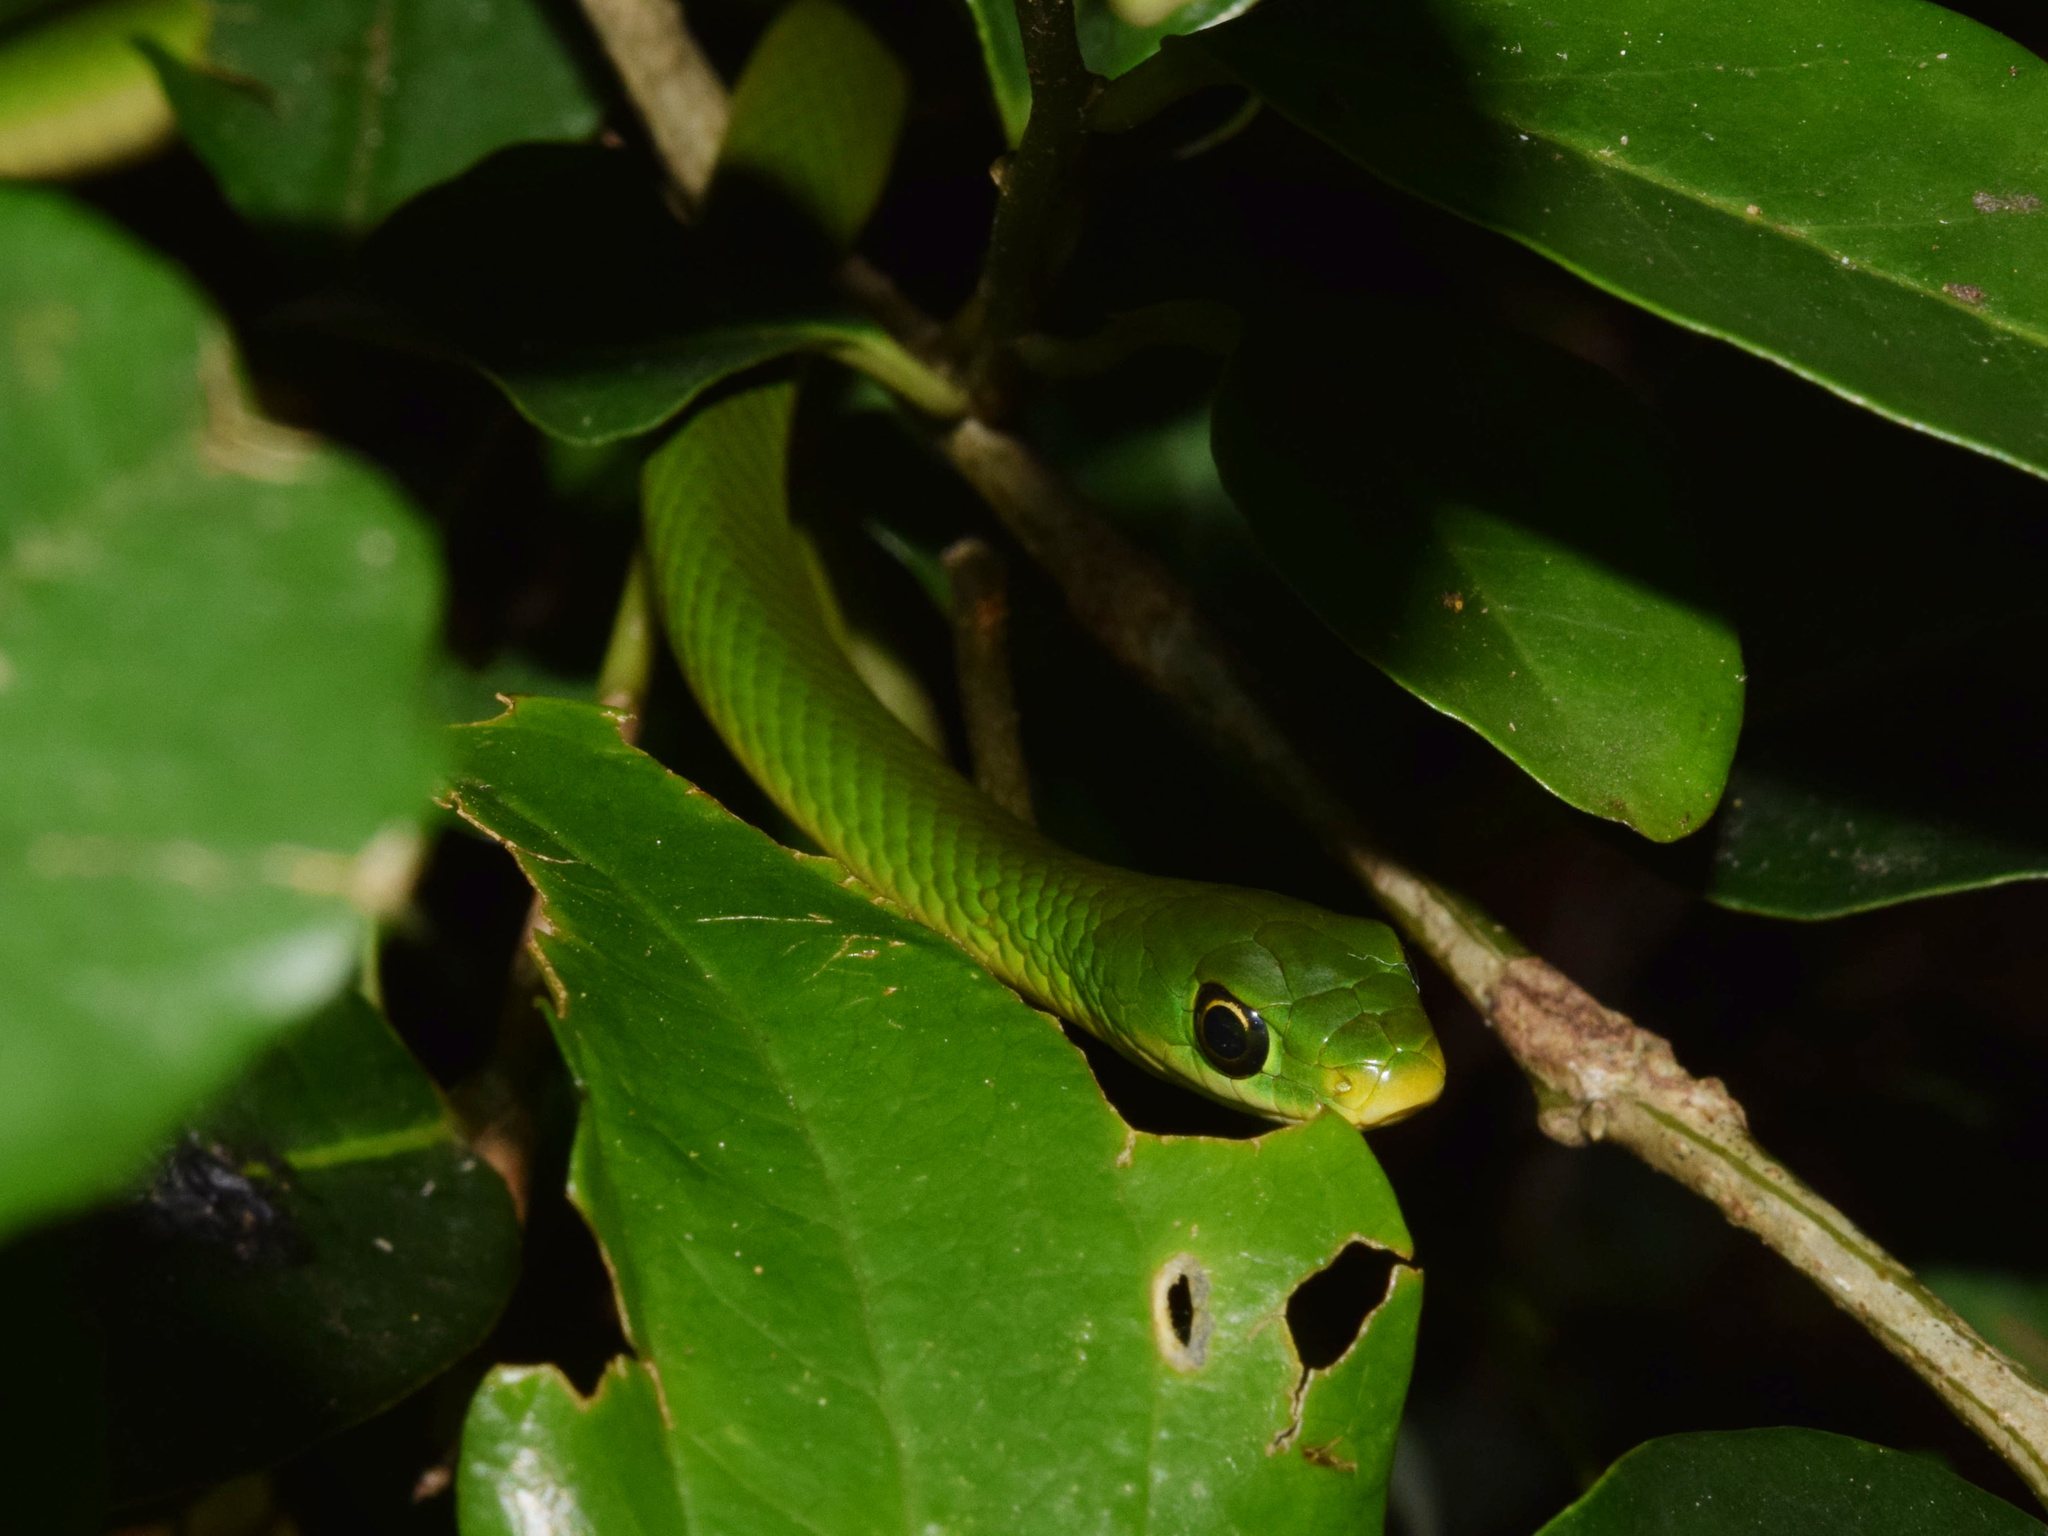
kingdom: Animalia
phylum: Chordata
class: Squamata
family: Colubridae
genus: Philothamnus
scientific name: Philothamnus hoplogaster
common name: Green water snake
